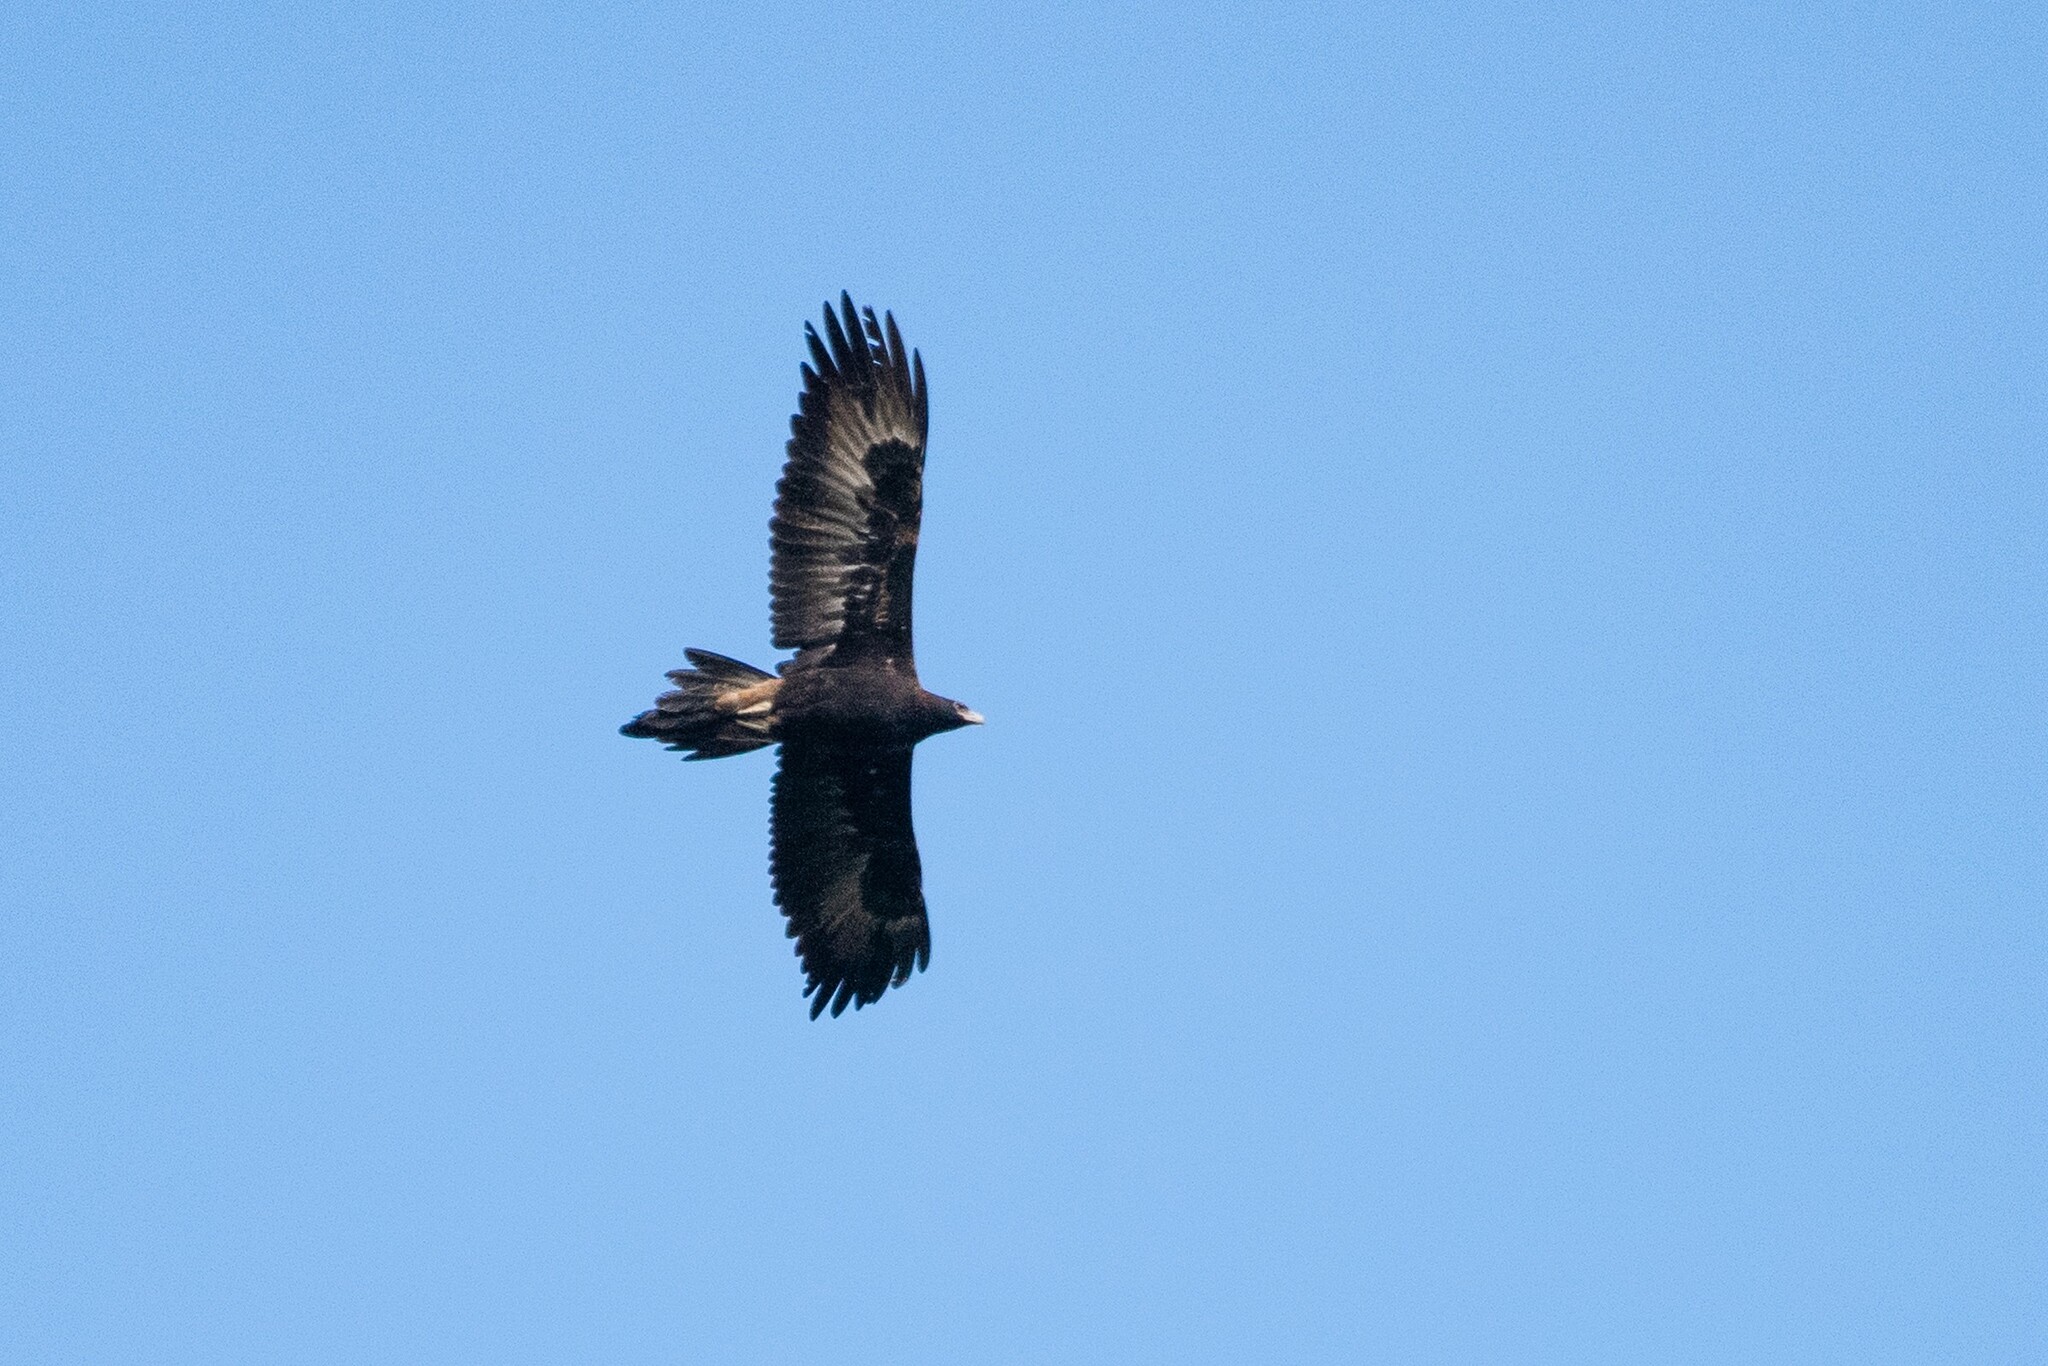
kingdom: Animalia
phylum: Chordata
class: Aves
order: Accipitriformes
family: Accipitridae
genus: Aquila
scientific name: Aquila audax
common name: Wedge-tailed eagle
